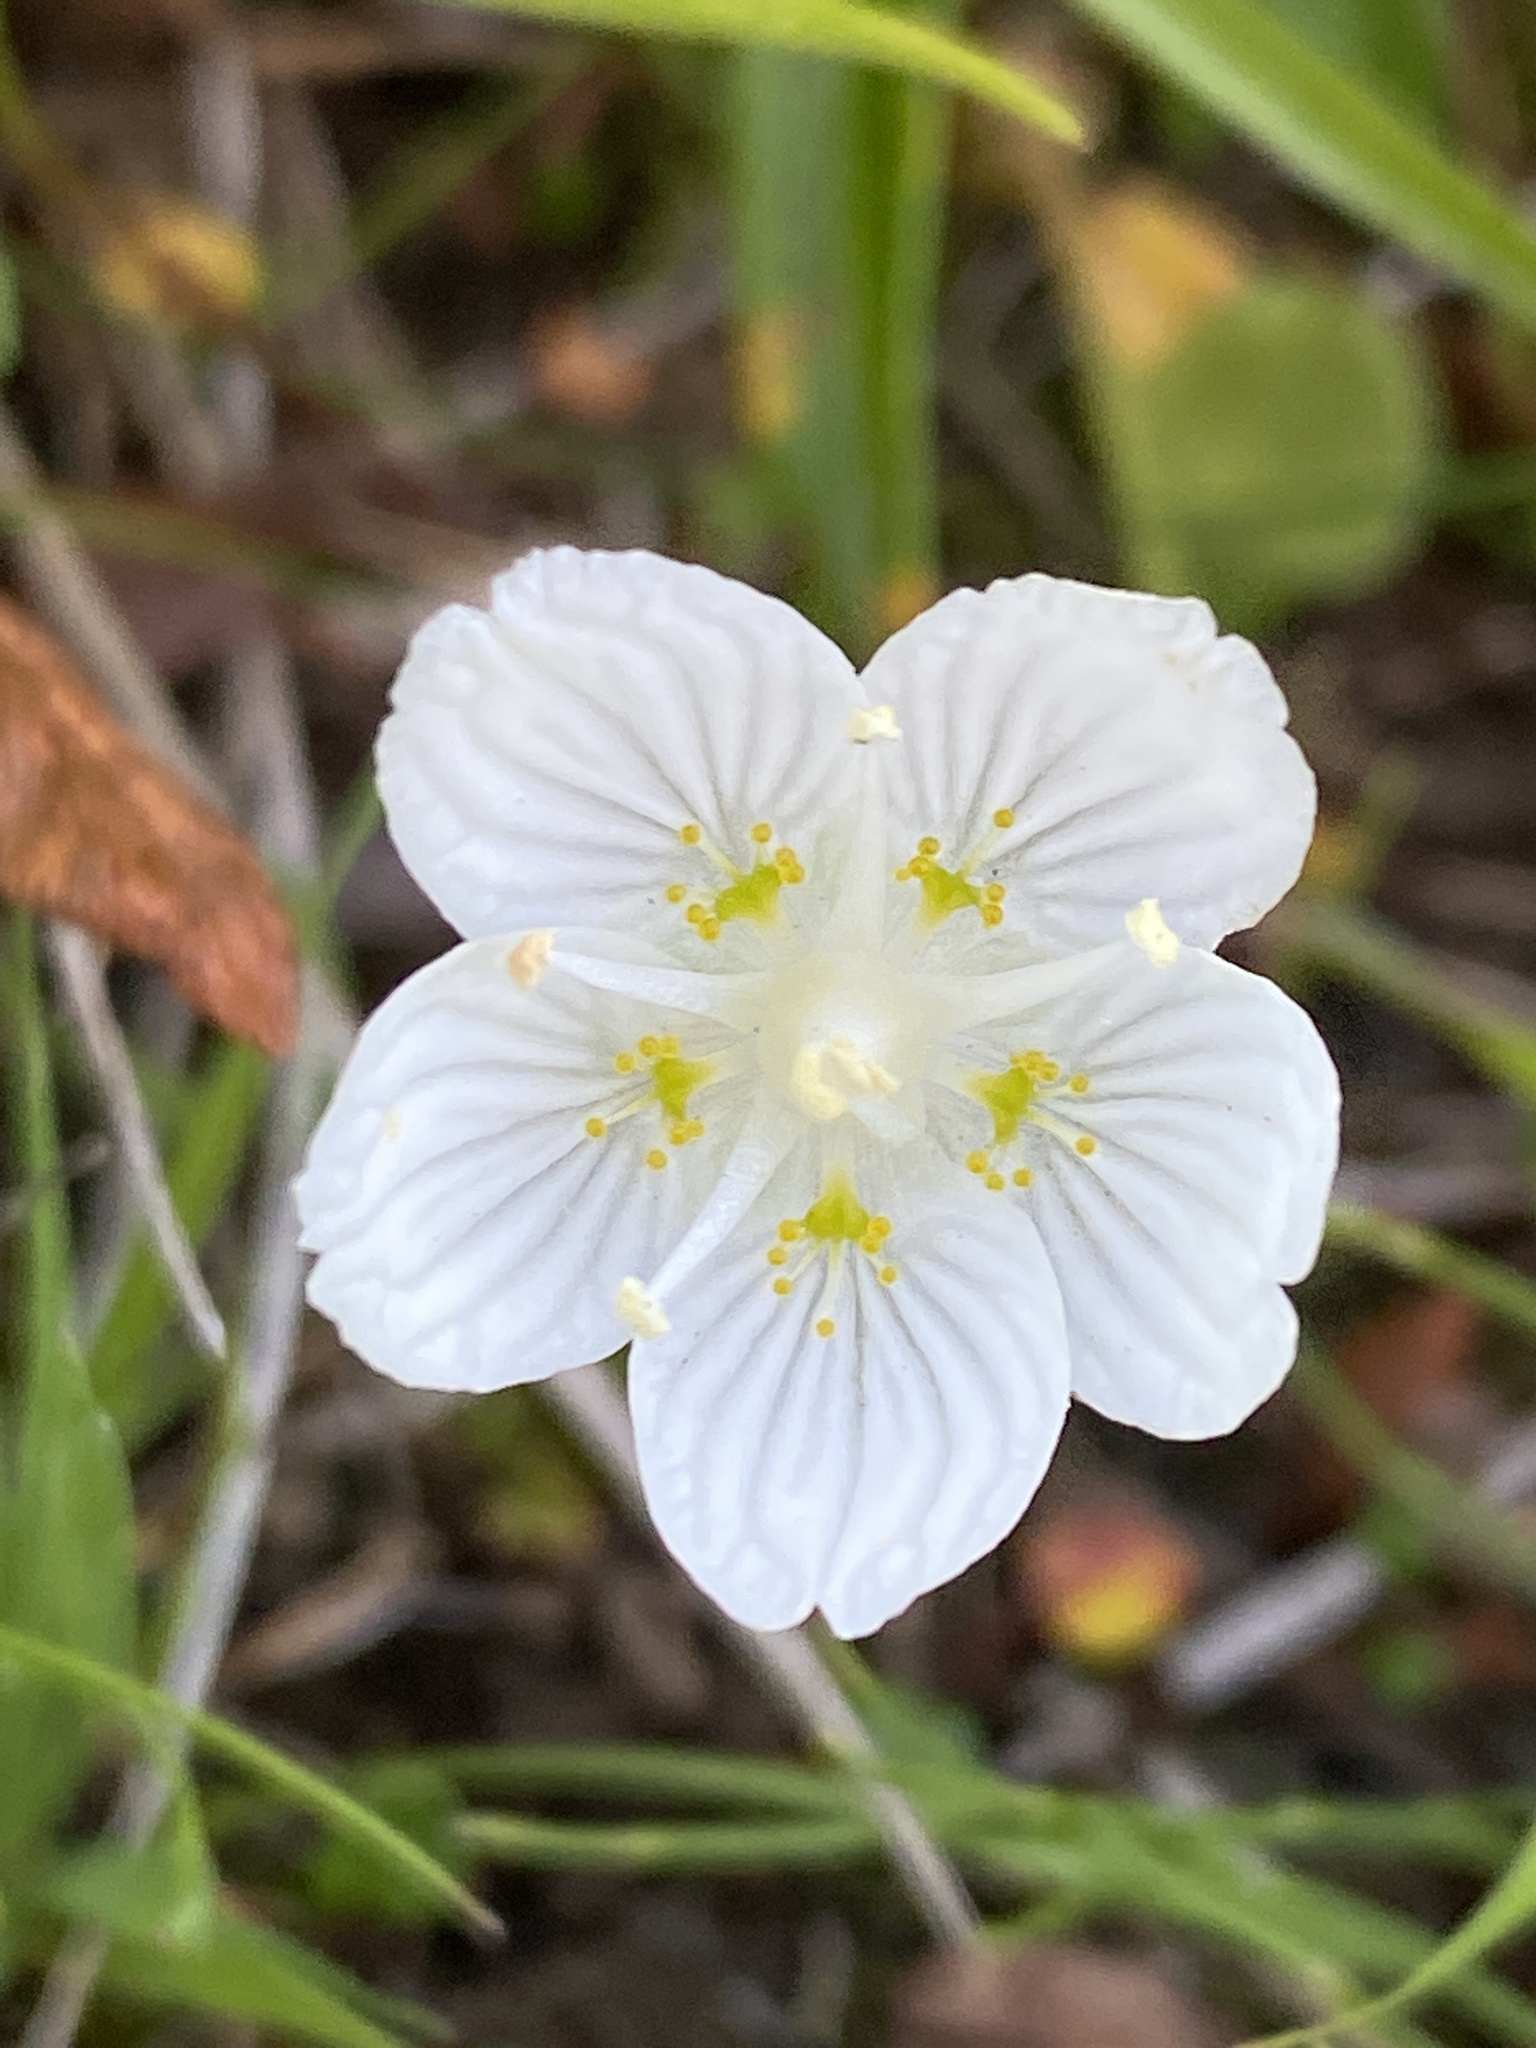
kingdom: Plantae
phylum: Tracheophyta
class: Magnoliopsida
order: Celastrales
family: Parnassiaceae
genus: Parnassia
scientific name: Parnassia palustris
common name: Grass-of-parnassus
